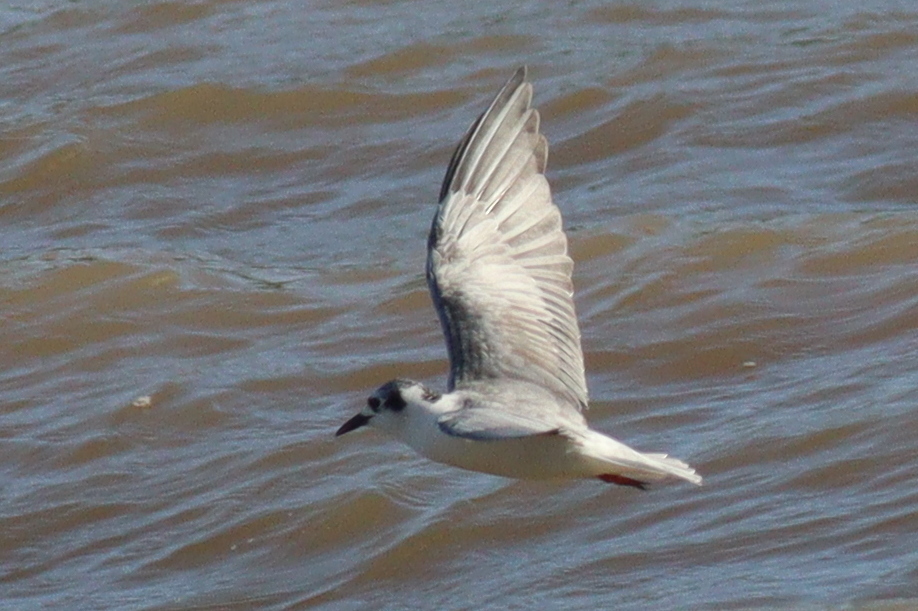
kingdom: Animalia
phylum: Chordata
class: Aves
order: Charadriiformes
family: Laridae
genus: Chlidonias
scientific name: Chlidonias leucopterus
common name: White-winged tern
